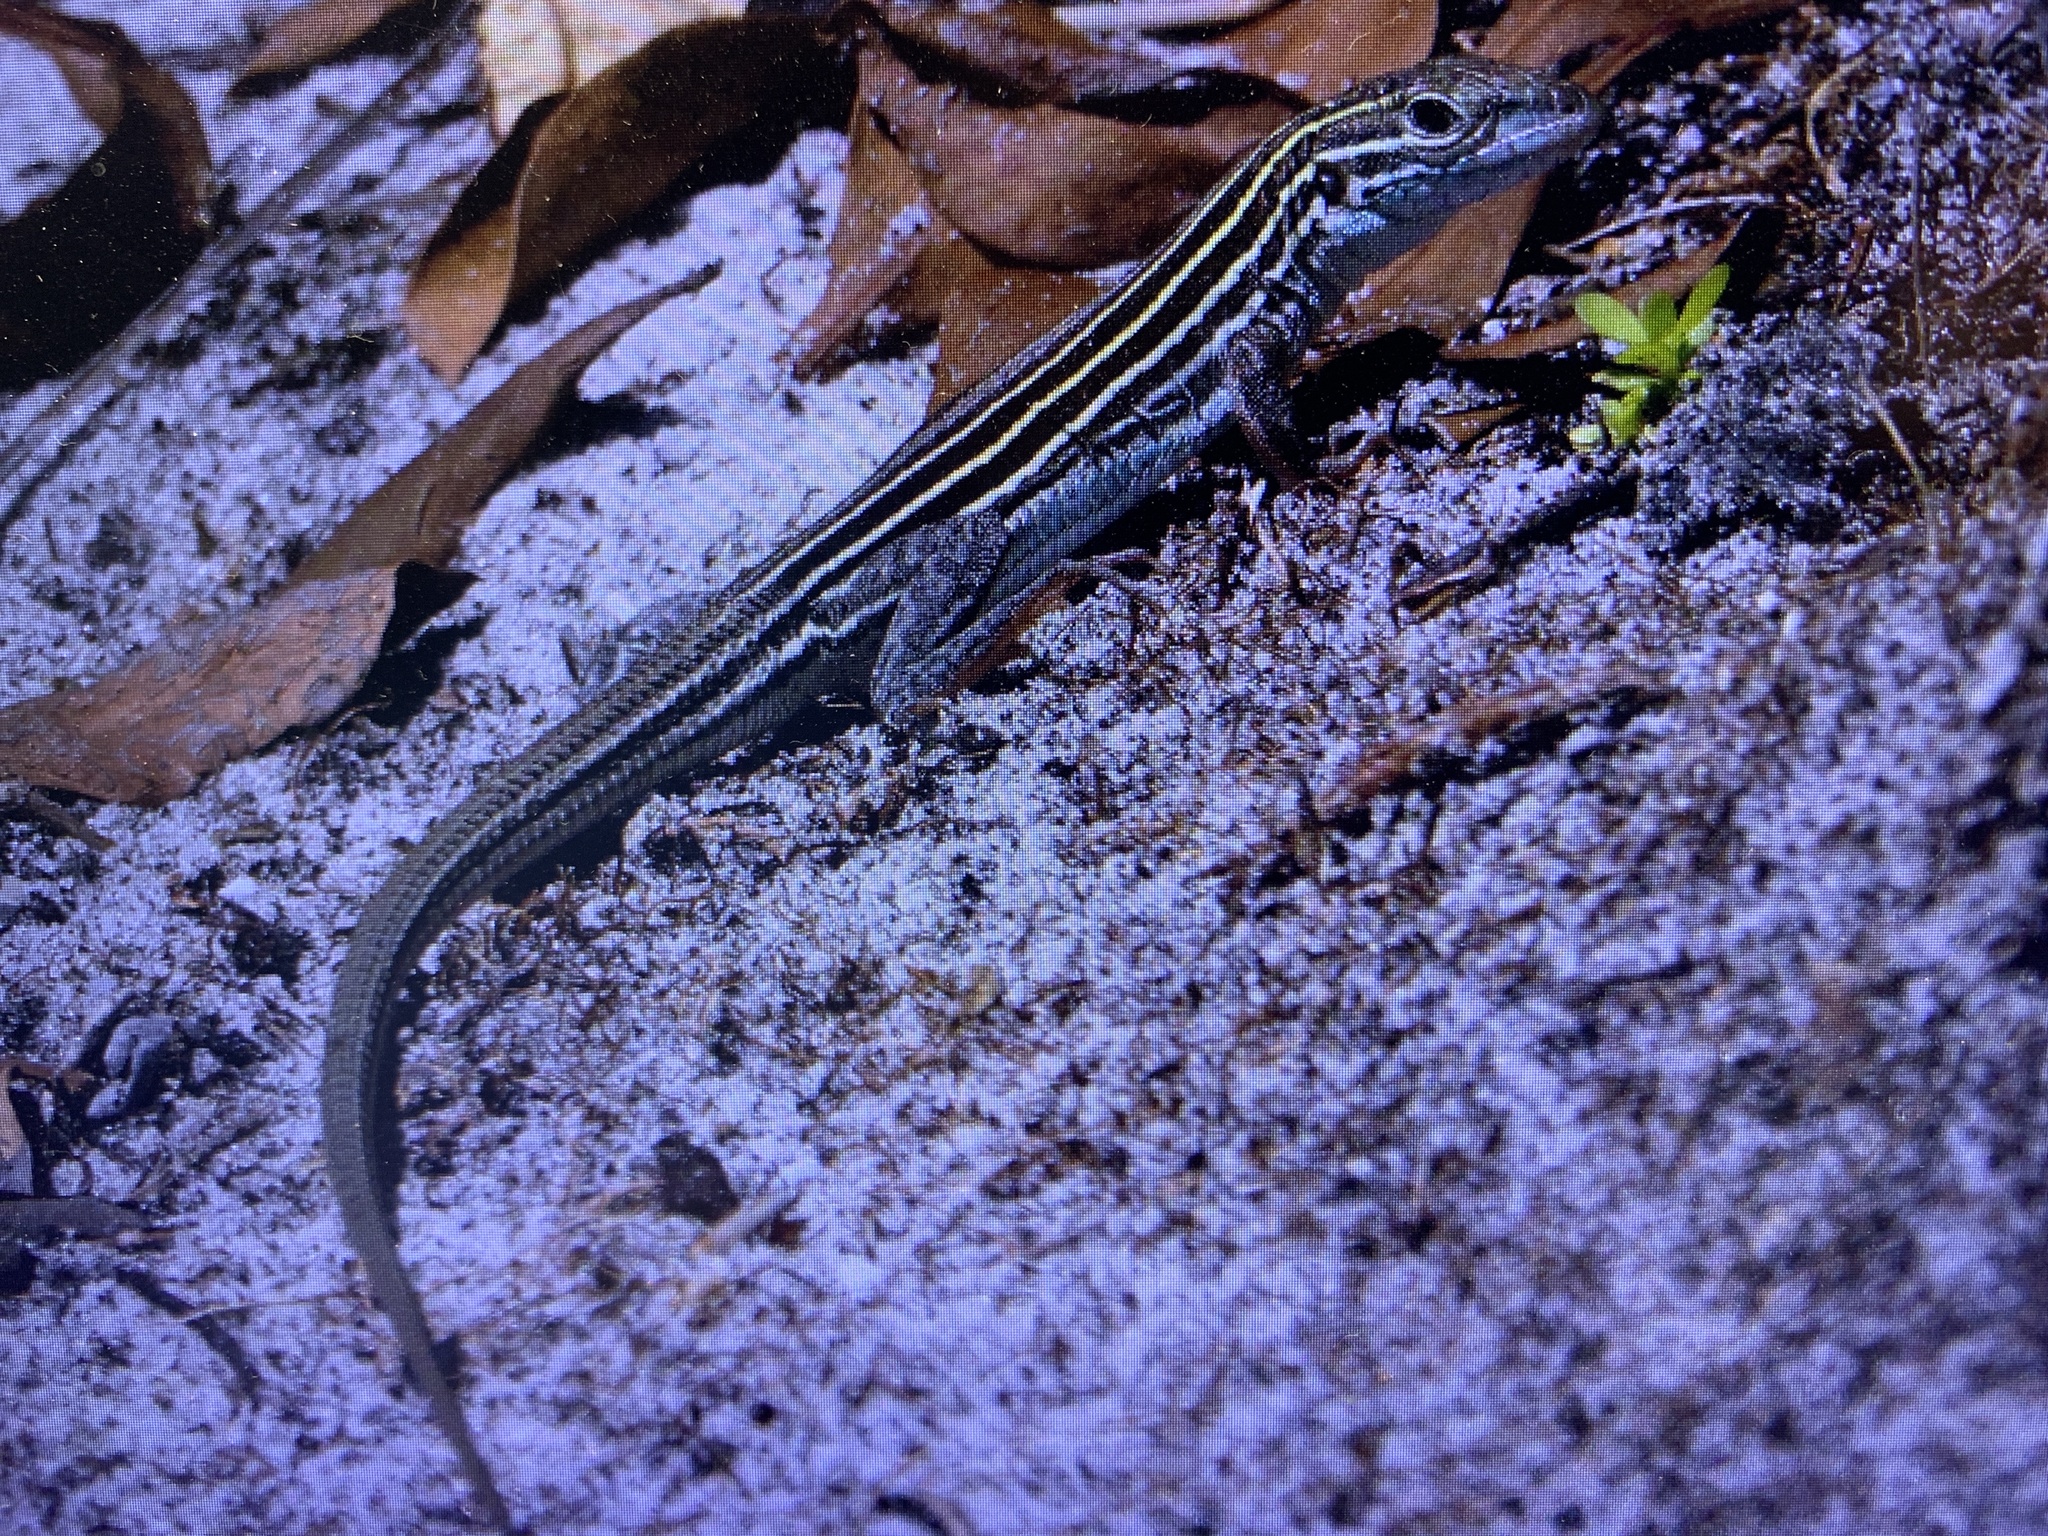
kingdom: Animalia
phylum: Chordata
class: Squamata
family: Teiidae
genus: Aspidoscelis
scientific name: Aspidoscelis sexlineatus
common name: Six-lined racerunner
